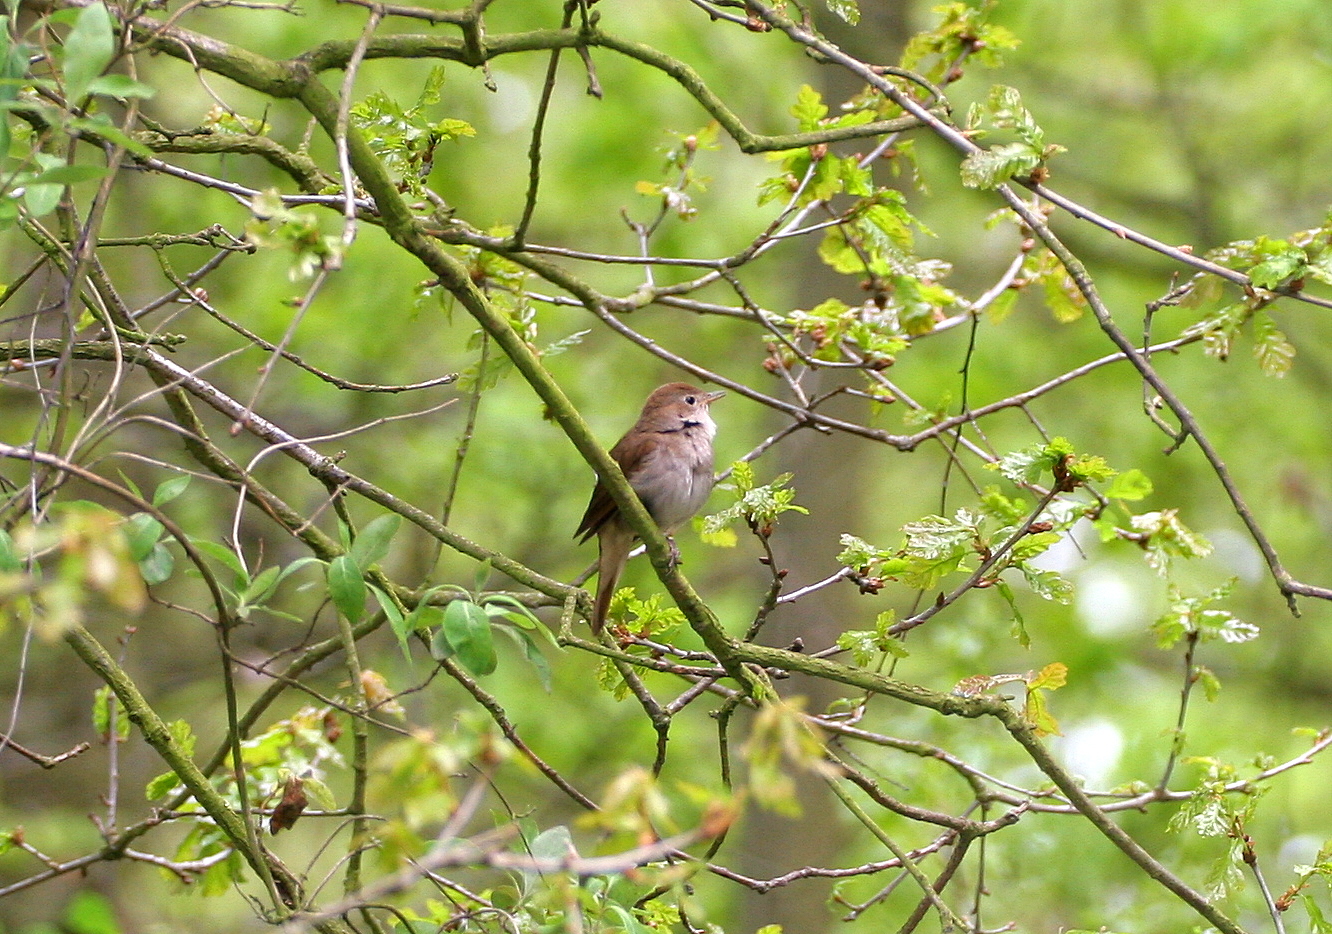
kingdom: Animalia
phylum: Chordata
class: Aves
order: Passeriformes
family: Muscicapidae
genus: Luscinia
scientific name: Luscinia megarhynchos
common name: Common nightingale
